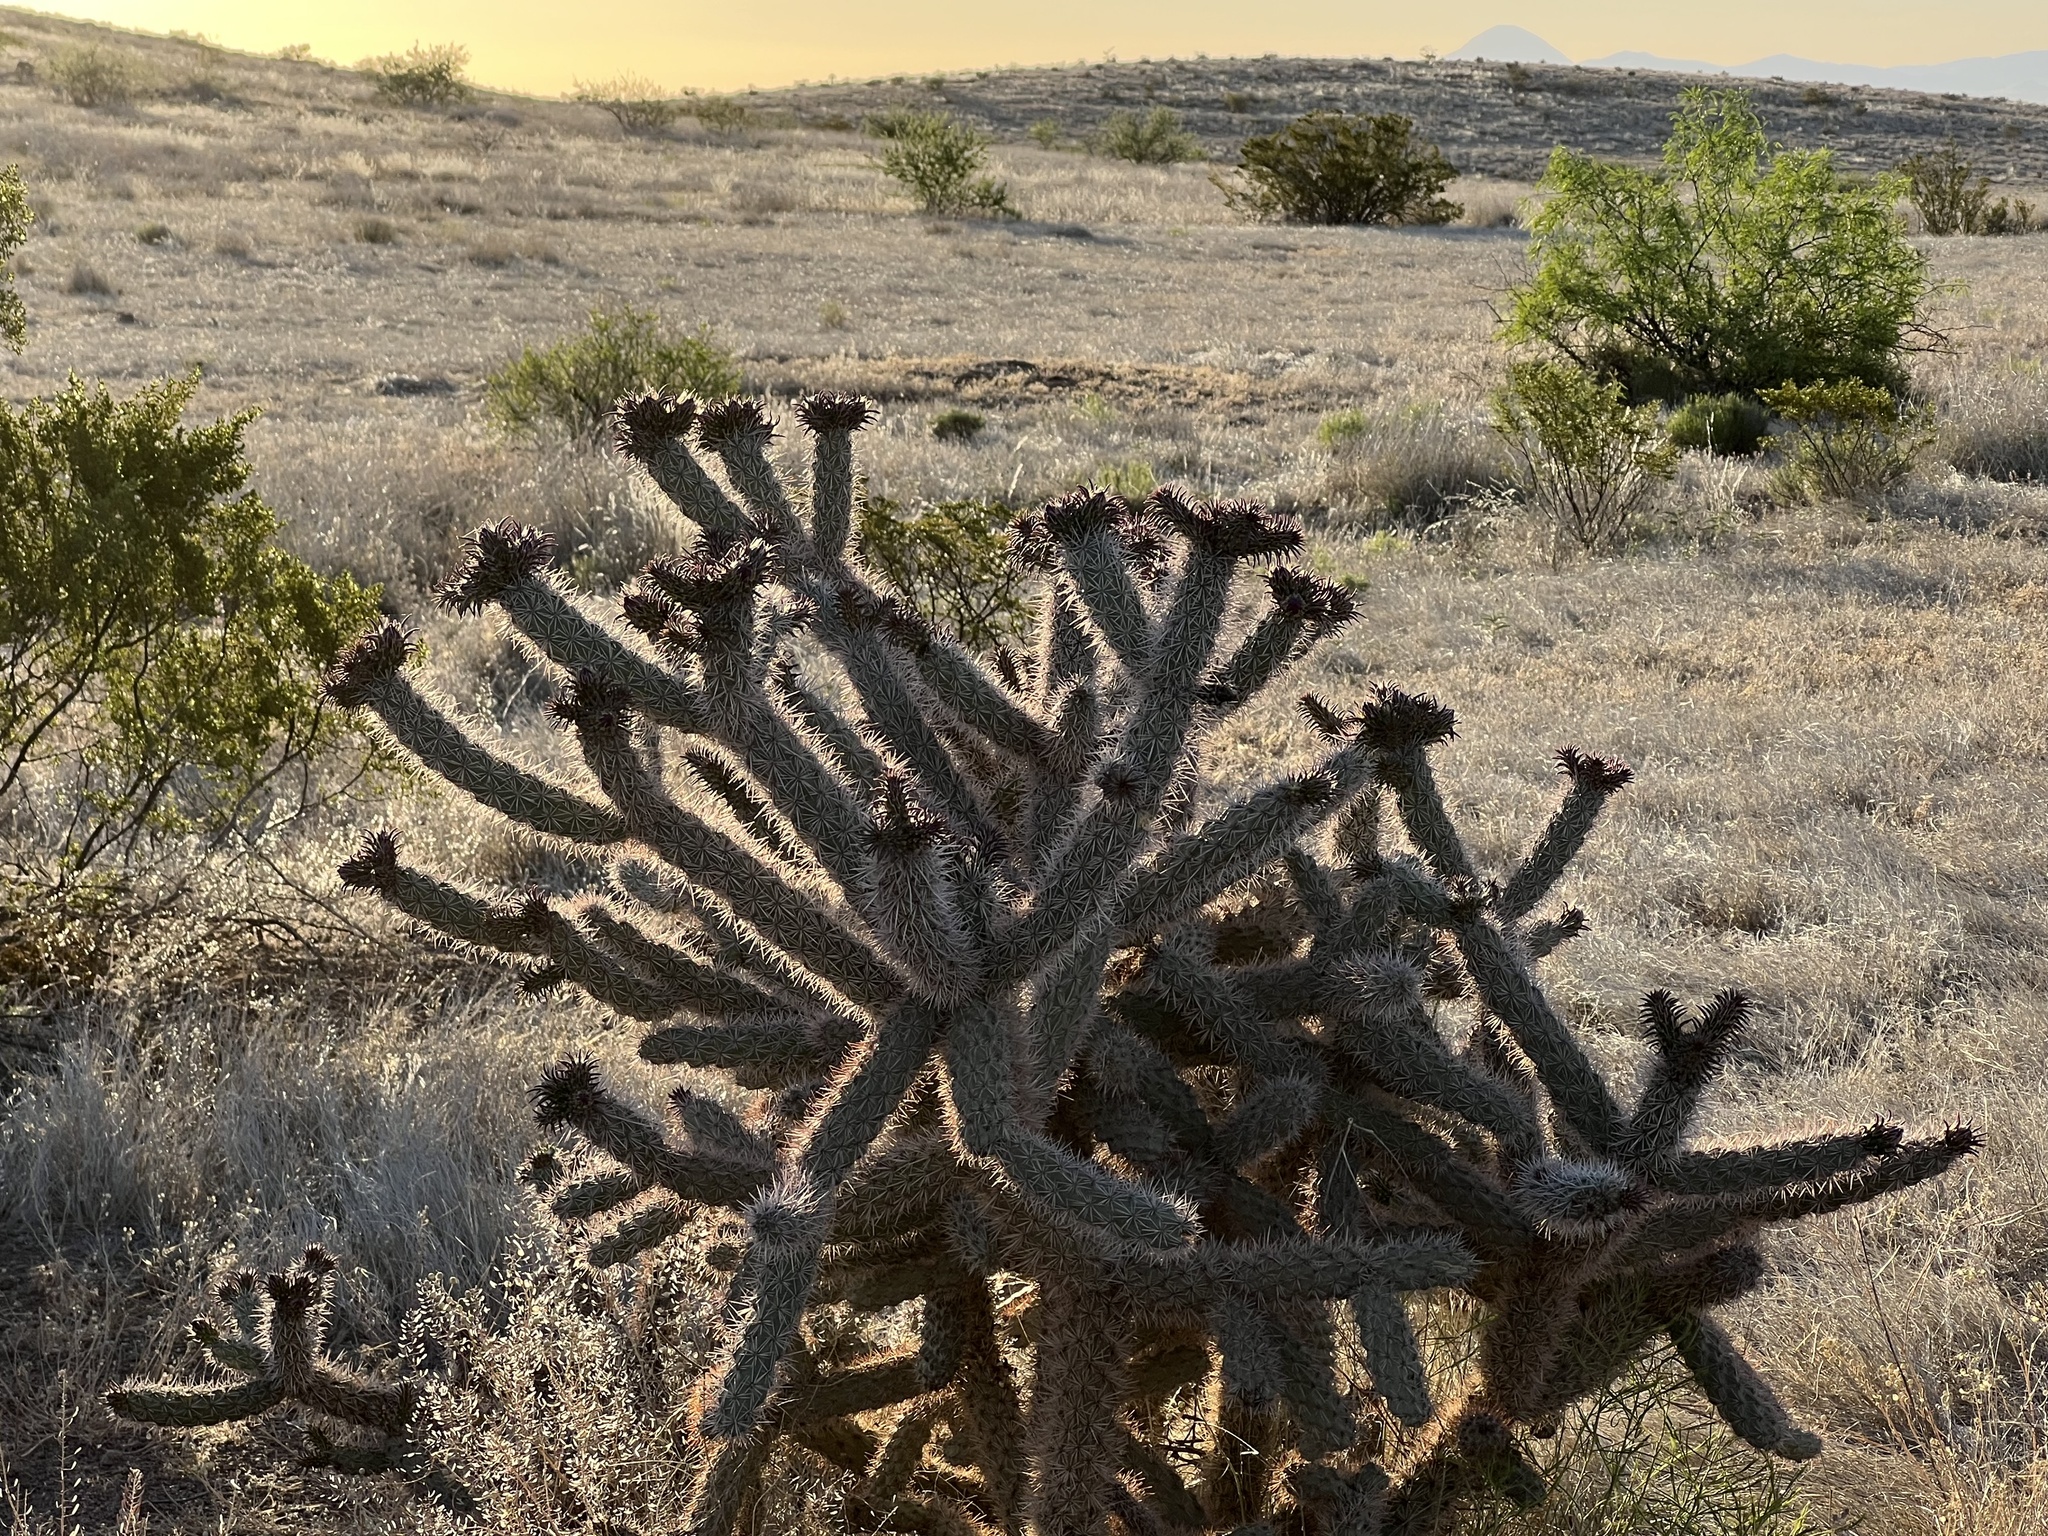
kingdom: Plantae
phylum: Tracheophyta
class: Magnoliopsida
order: Caryophyllales
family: Cactaceae
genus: Cylindropuntia
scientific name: Cylindropuntia imbricata
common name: Candelabrum cactus
